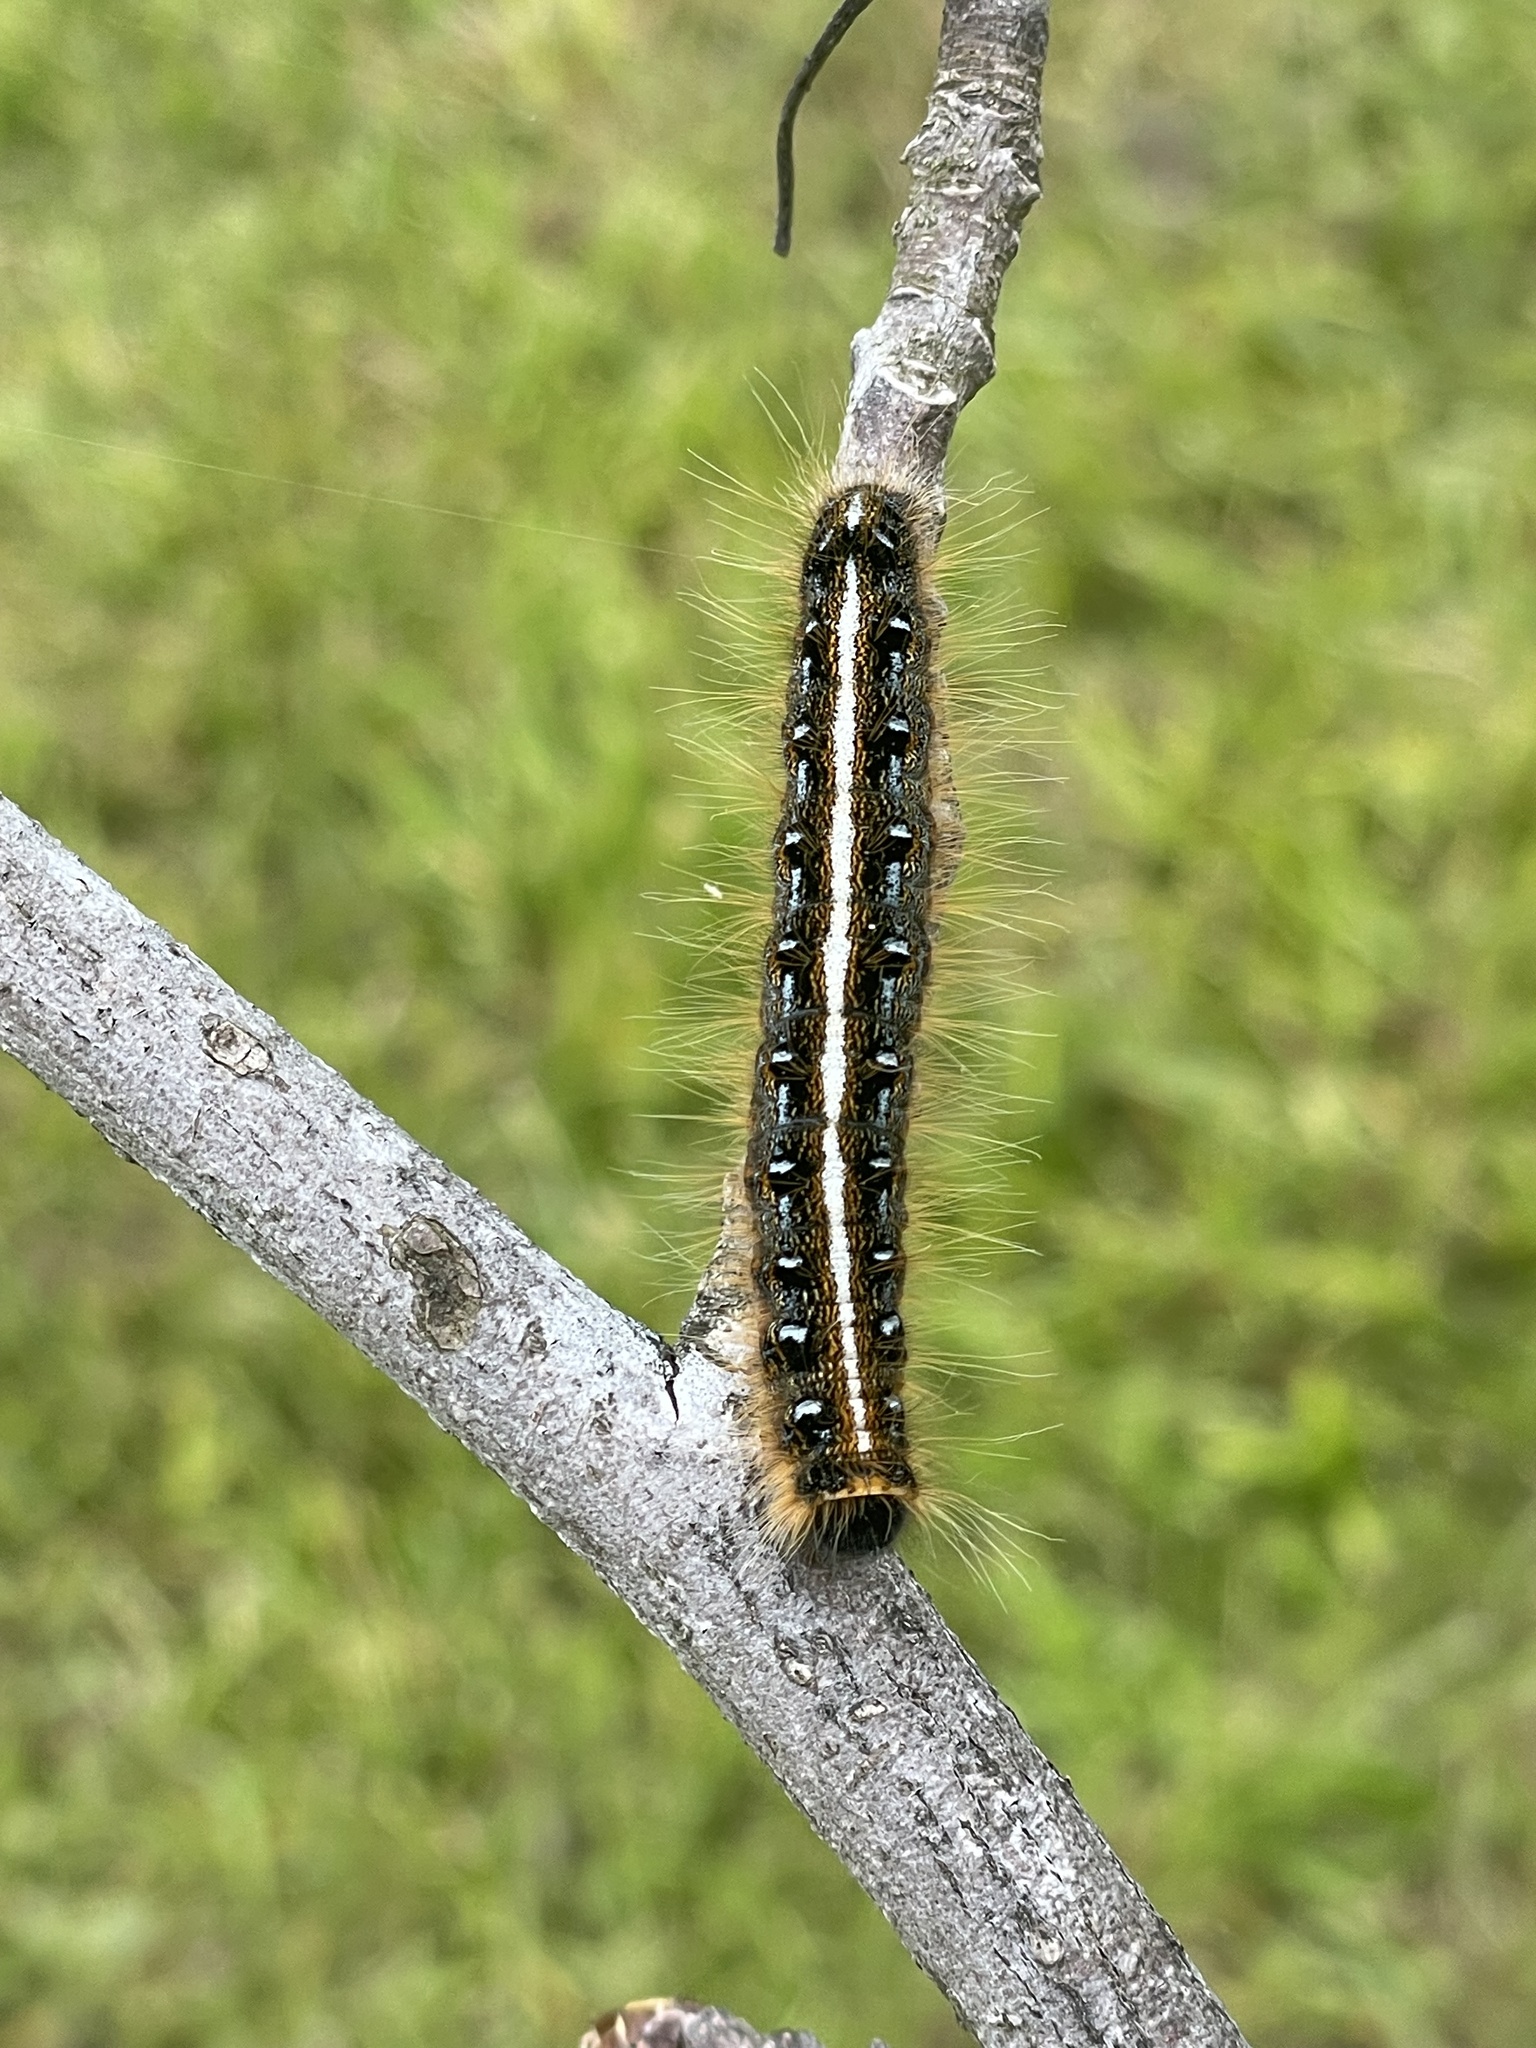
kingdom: Animalia
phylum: Arthropoda
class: Insecta
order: Lepidoptera
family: Lasiocampidae
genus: Malacosoma
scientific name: Malacosoma americana
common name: Eastern tent caterpillar moth
